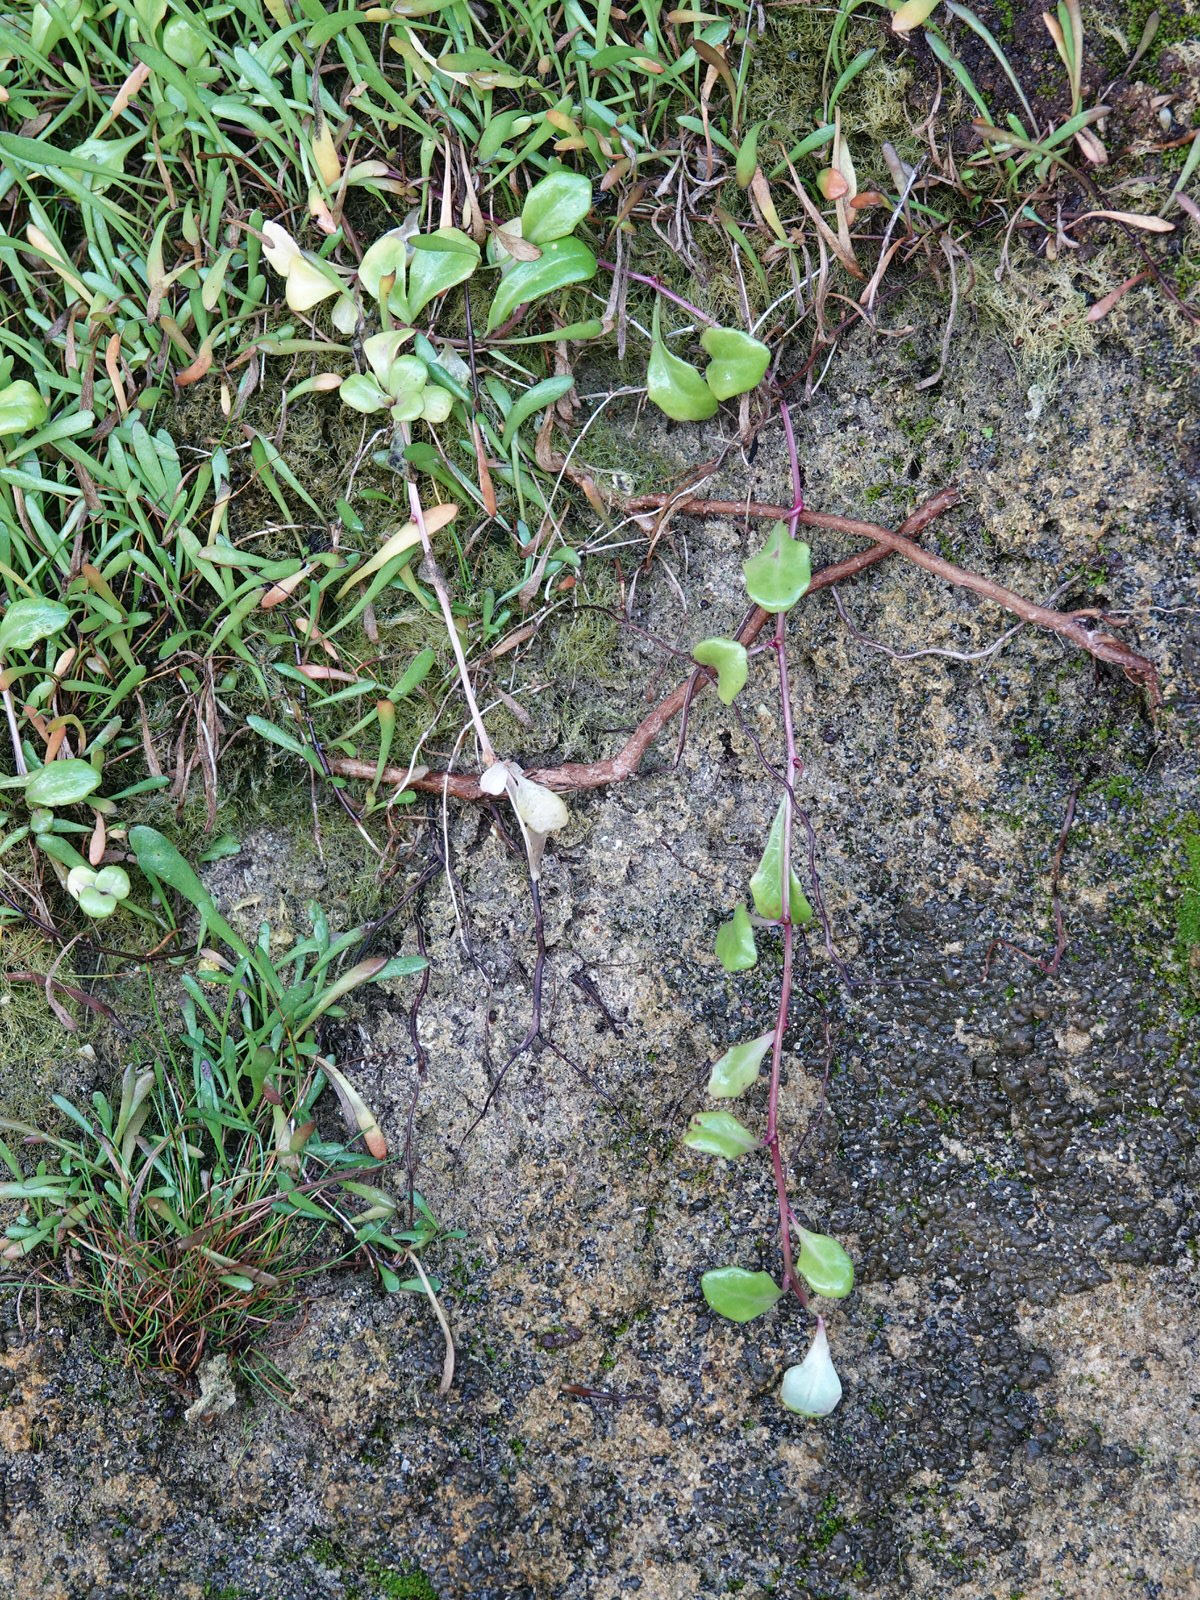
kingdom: Plantae
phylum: Tracheophyta
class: Magnoliopsida
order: Asterales
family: Campanulaceae
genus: Lobelia
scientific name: Lobelia anceps
